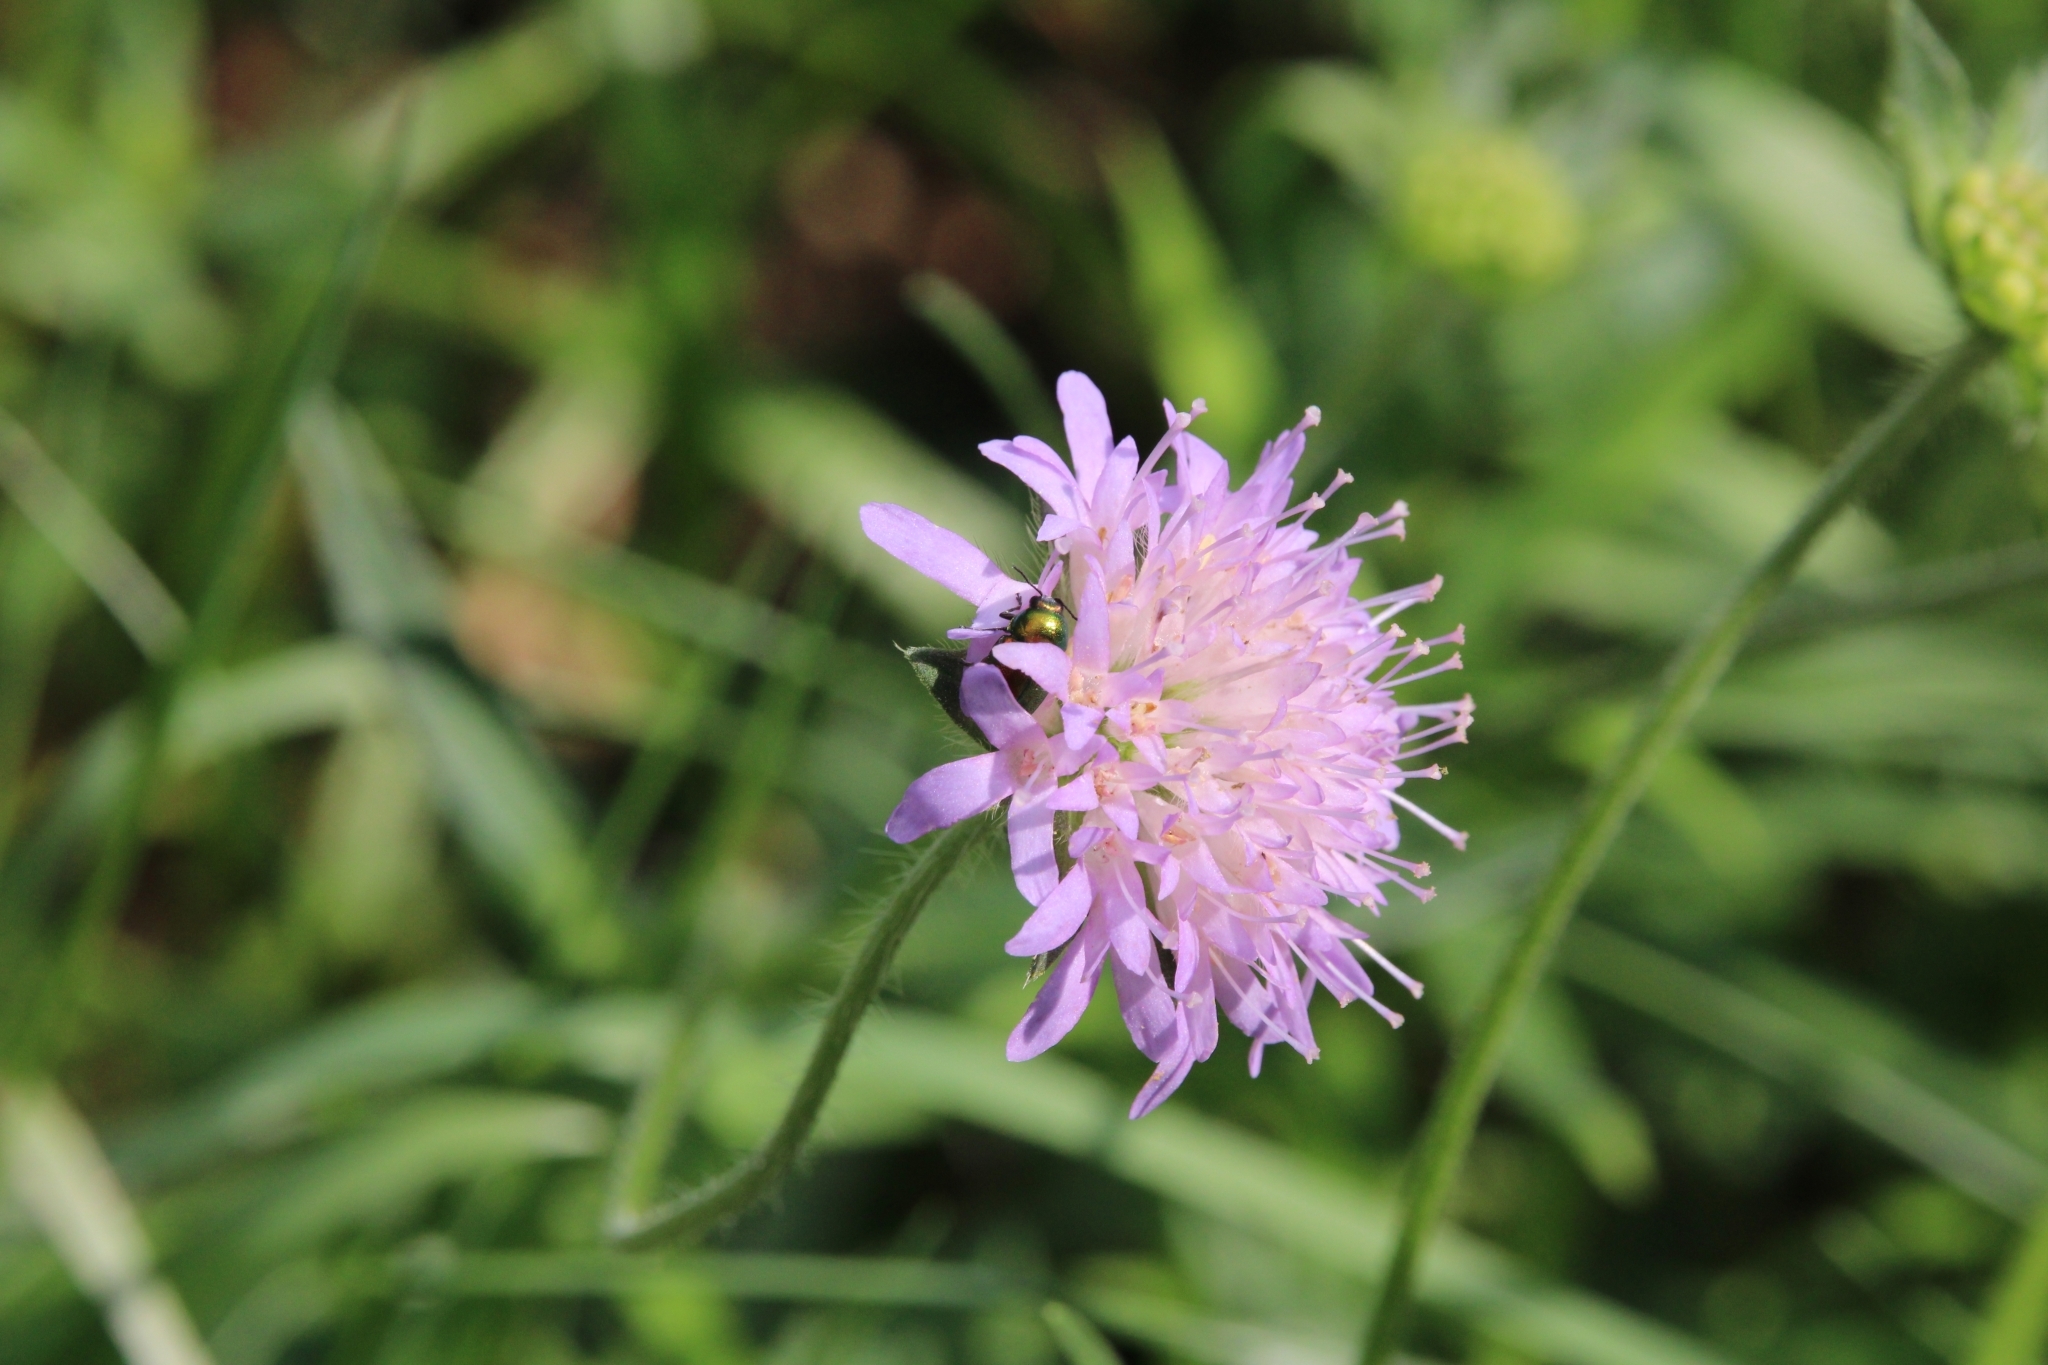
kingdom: Plantae
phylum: Tracheophyta
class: Magnoliopsida
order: Dipsacales
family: Caprifoliaceae
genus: Knautia
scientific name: Knautia arvensis
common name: Field scabiosa
